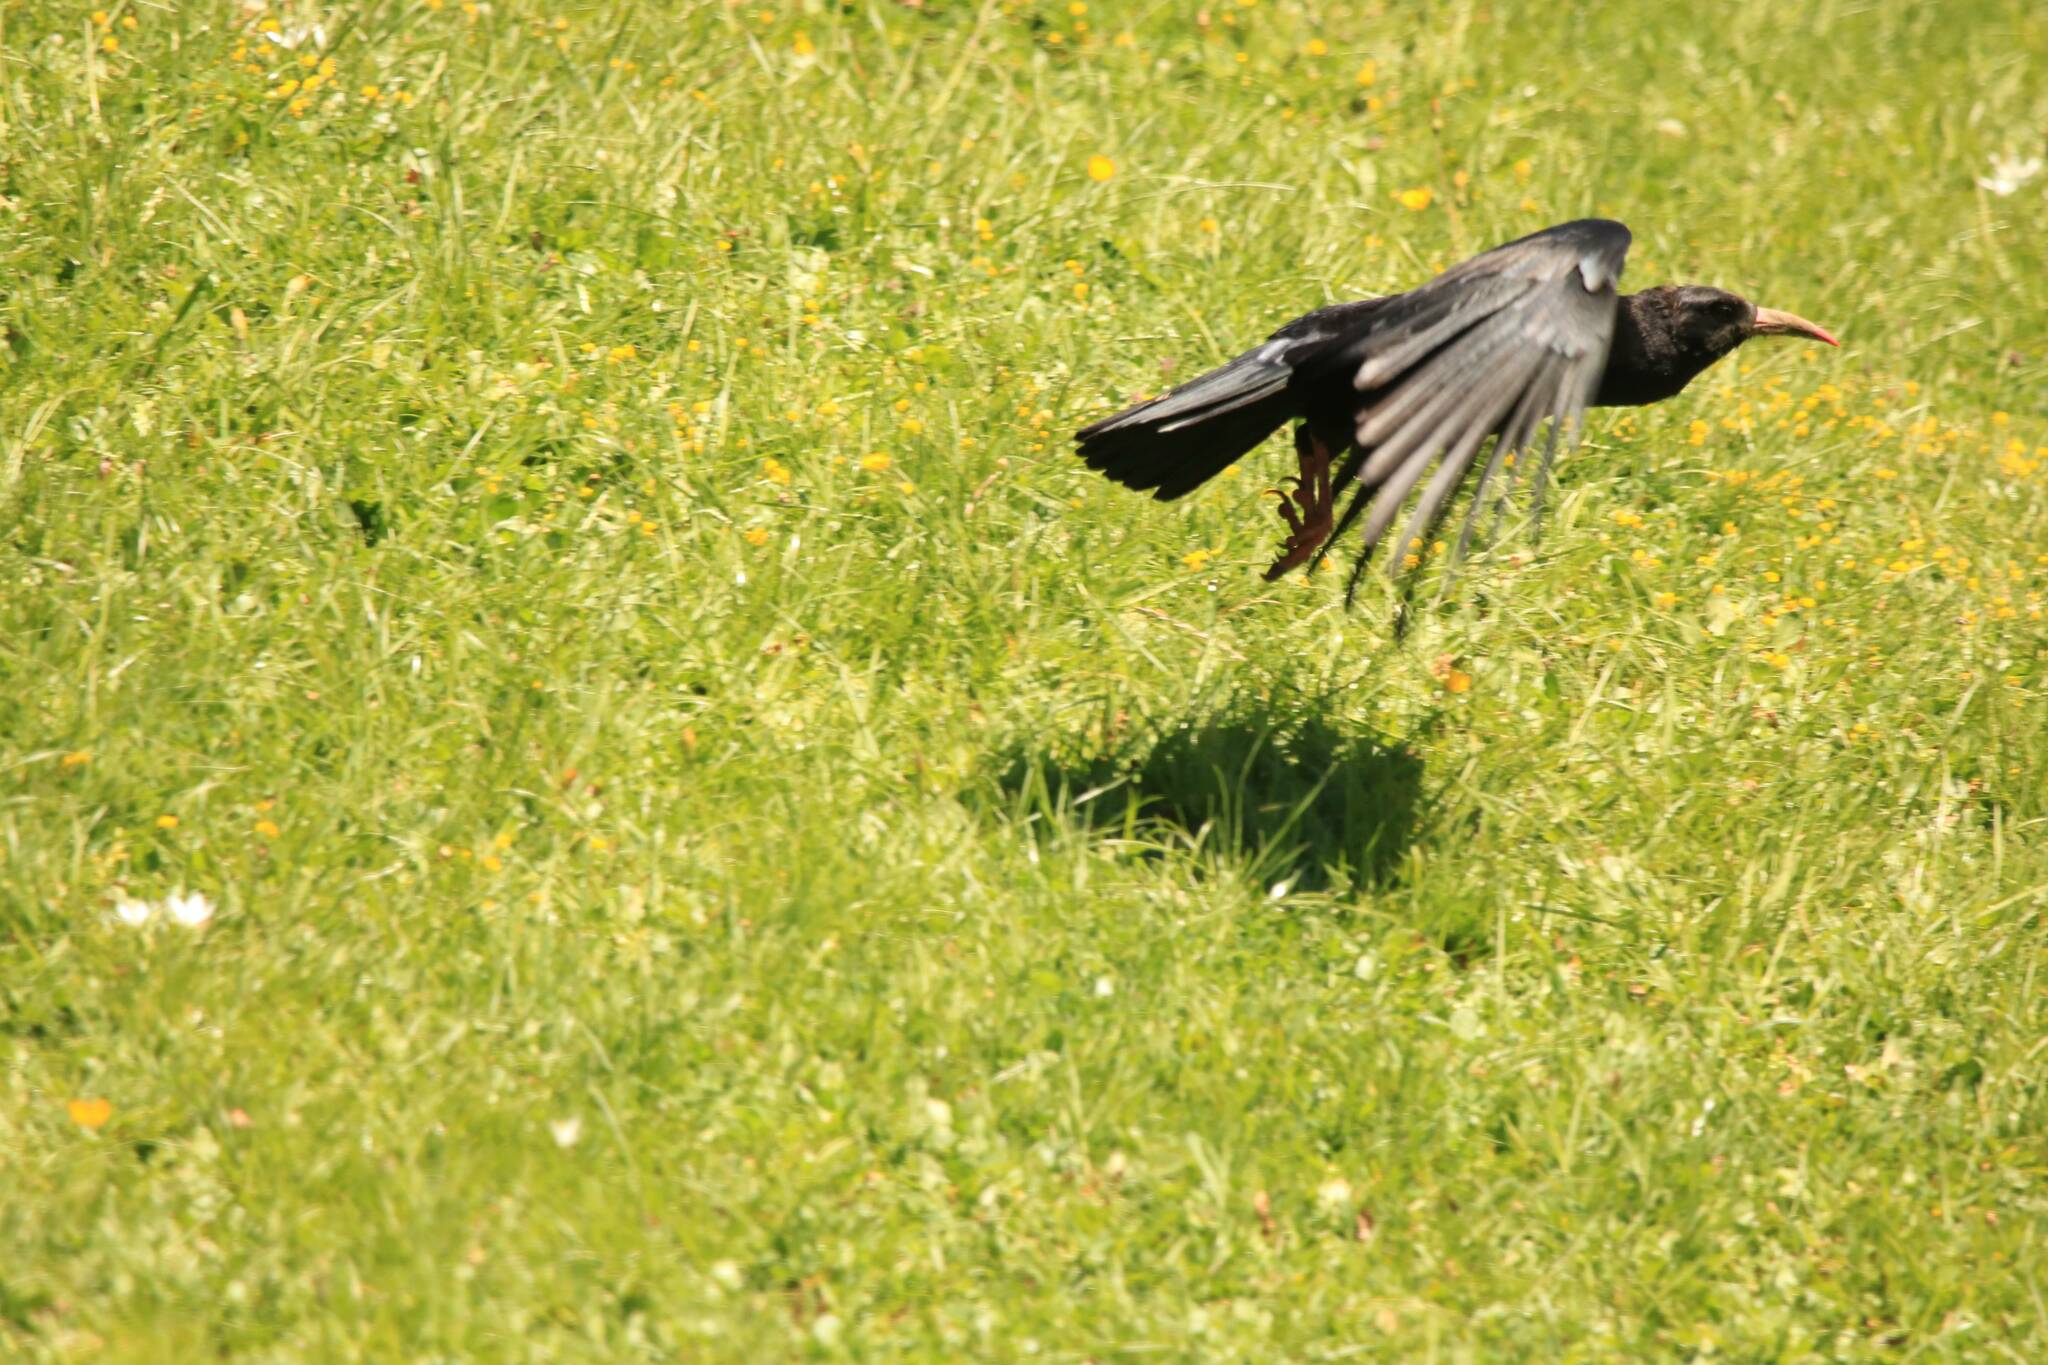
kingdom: Animalia
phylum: Chordata
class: Aves
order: Passeriformes
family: Corvidae
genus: Pyrrhocorax
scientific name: Pyrrhocorax pyrrhocorax
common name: Red-billed chough
